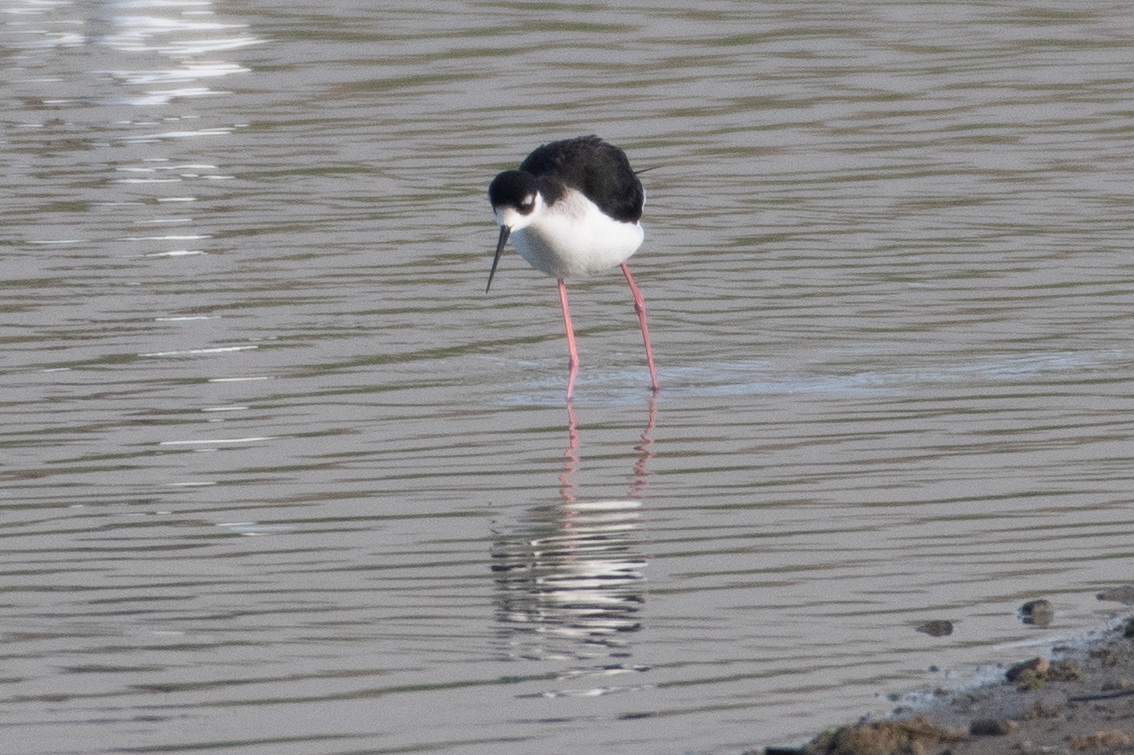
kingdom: Animalia
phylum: Chordata
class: Aves
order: Charadriiformes
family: Recurvirostridae
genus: Himantopus
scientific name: Himantopus mexicanus
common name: Black-necked stilt
